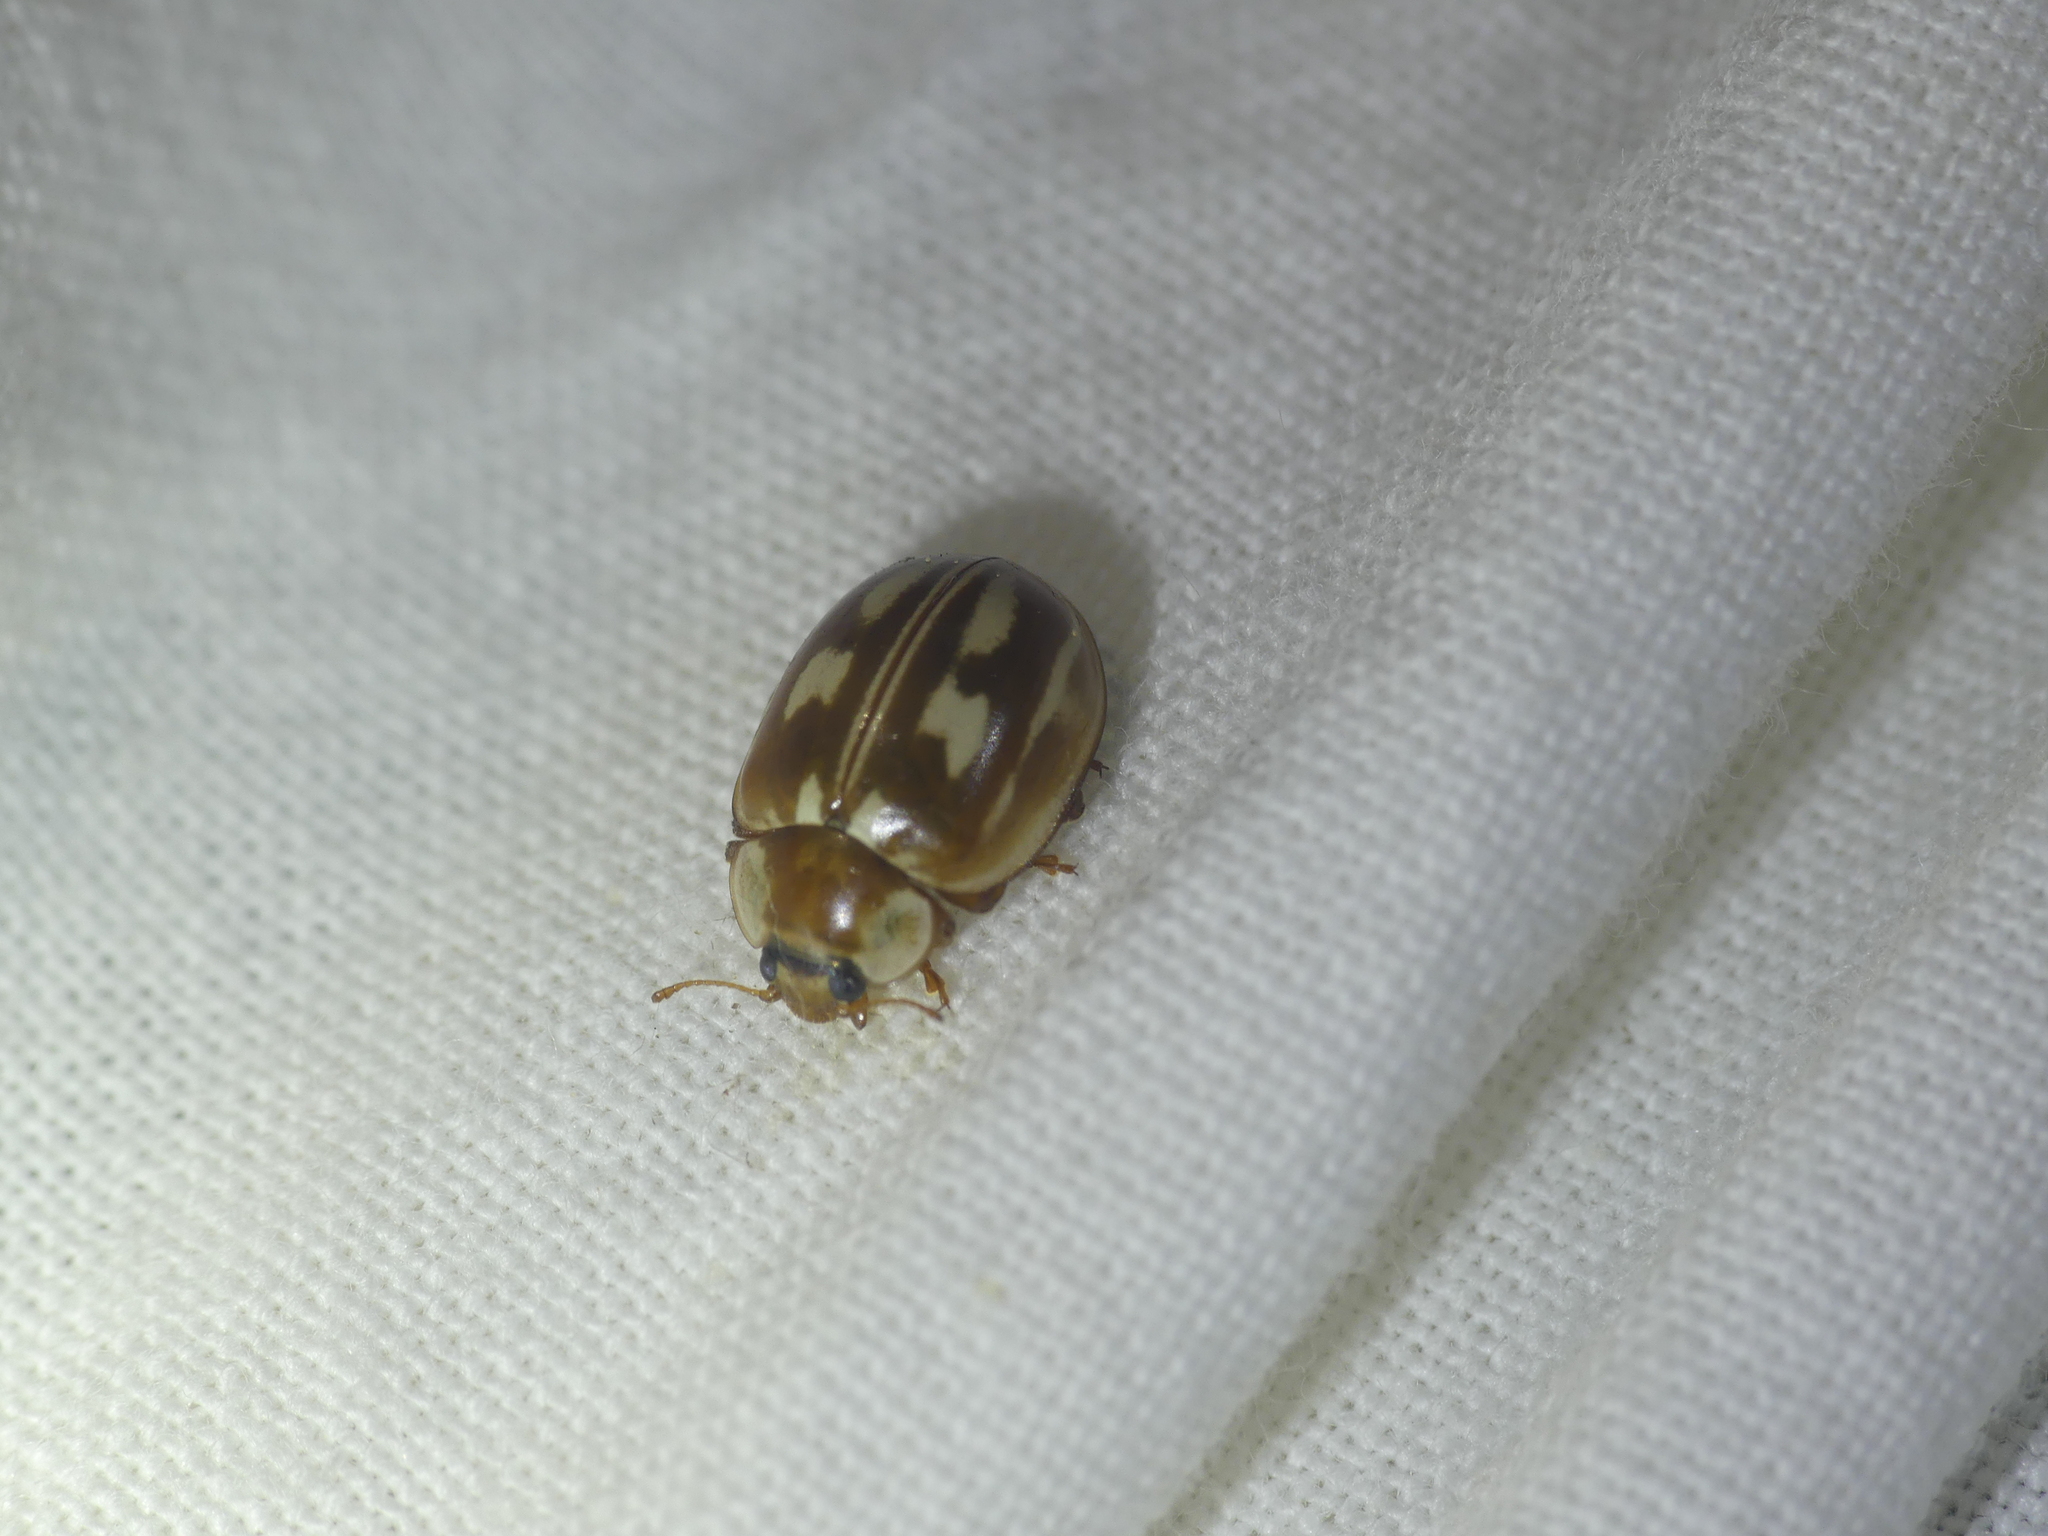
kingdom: Animalia
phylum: Arthropoda
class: Insecta
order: Coleoptera
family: Coccinellidae
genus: Myzia
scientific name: Myzia oblongoguttata
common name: Striped ladybird
